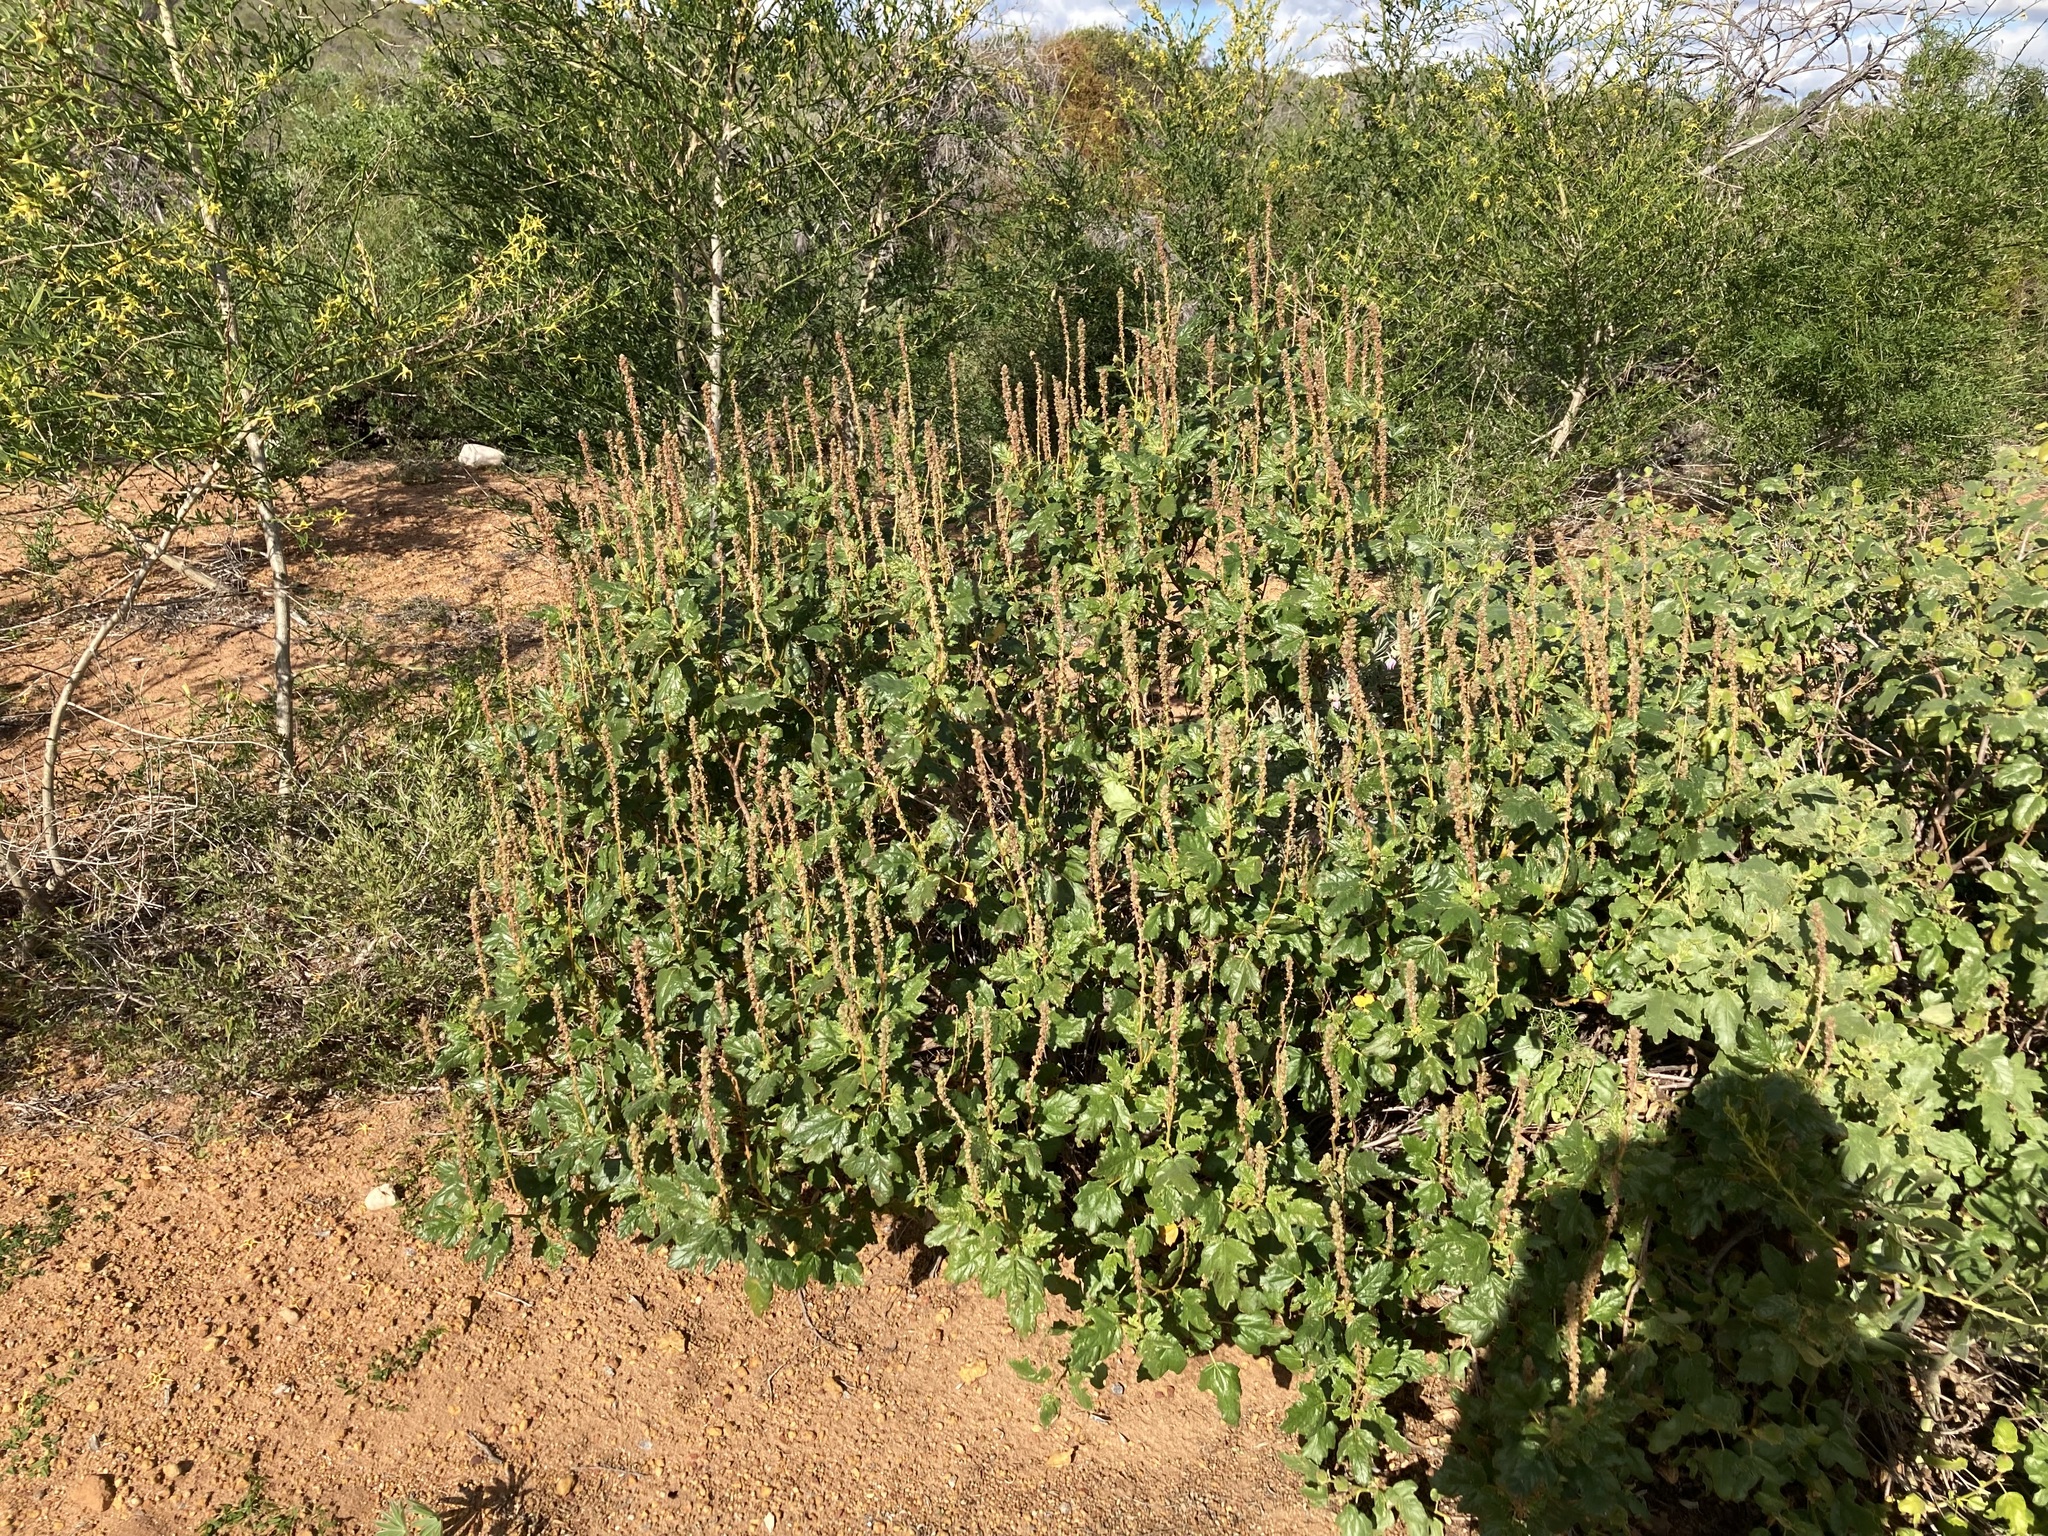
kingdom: Plantae
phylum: Tracheophyta
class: Magnoliopsida
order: Malpighiales
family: Euphorbiaceae
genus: Adriana
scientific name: Adriana tomentosa
